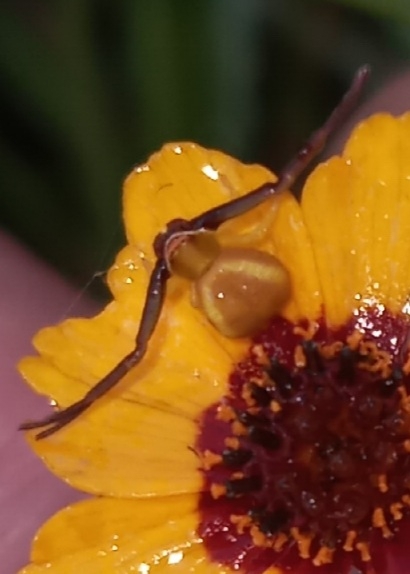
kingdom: Animalia
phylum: Arthropoda
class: Arachnida
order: Araneae
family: Thomisidae
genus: Misumenoides
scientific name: Misumenoides formosipes
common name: White-banded crab spider
